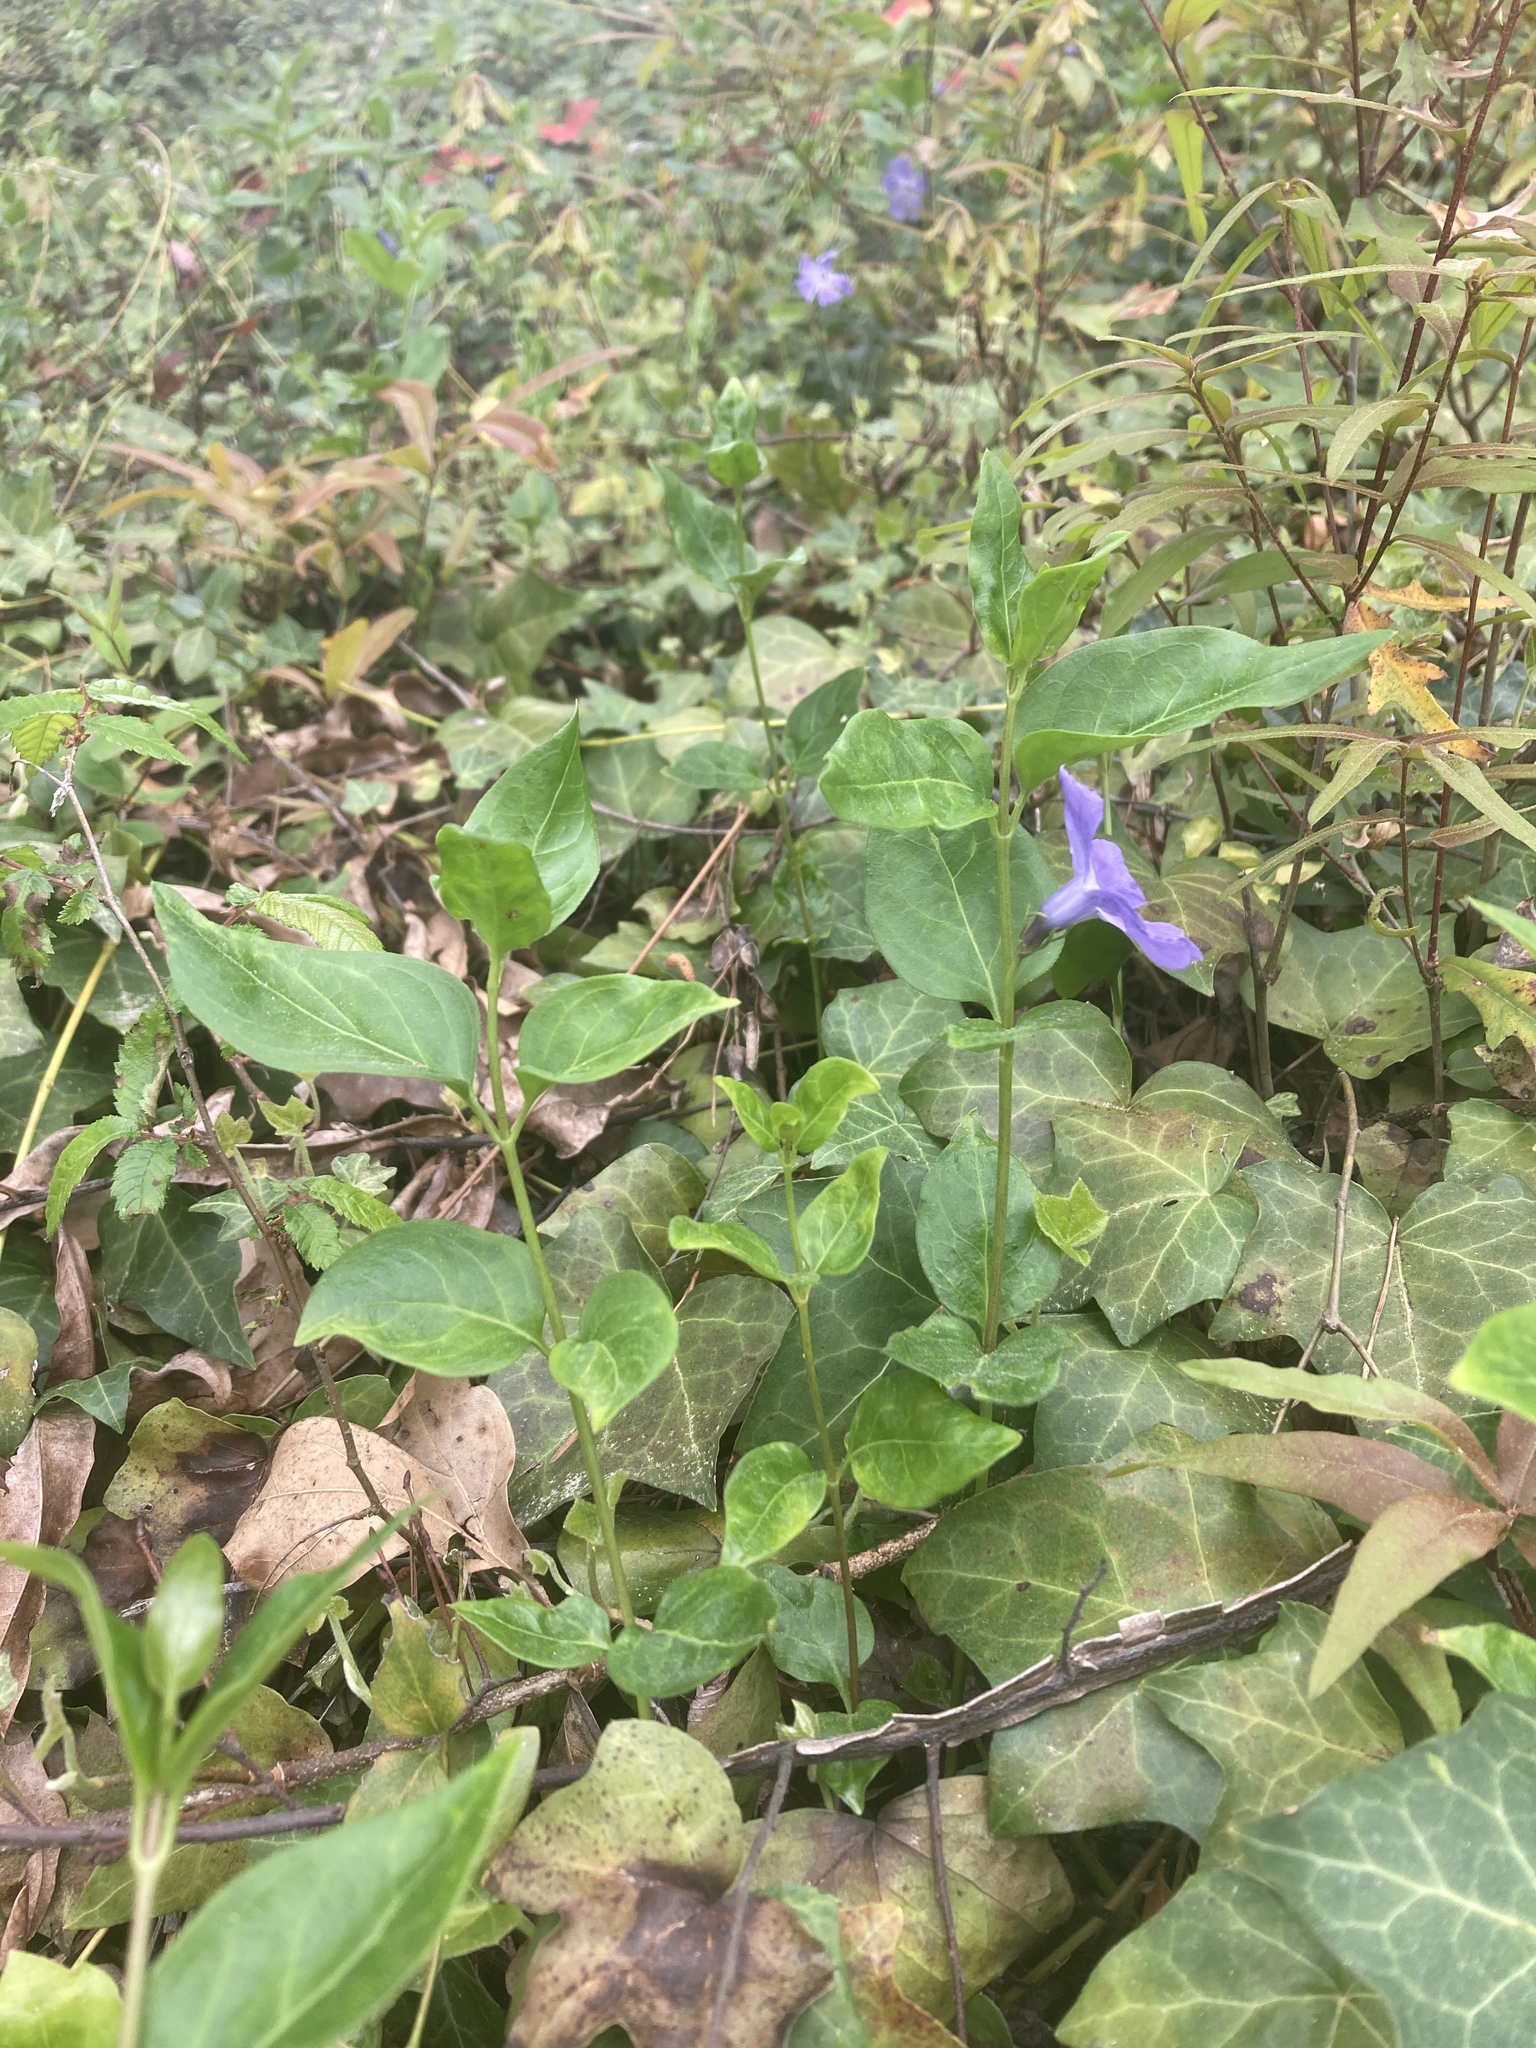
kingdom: Plantae
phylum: Tracheophyta
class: Magnoliopsida
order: Gentianales
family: Apocynaceae
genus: Vinca
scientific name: Vinca major
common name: Greater periwinkle
